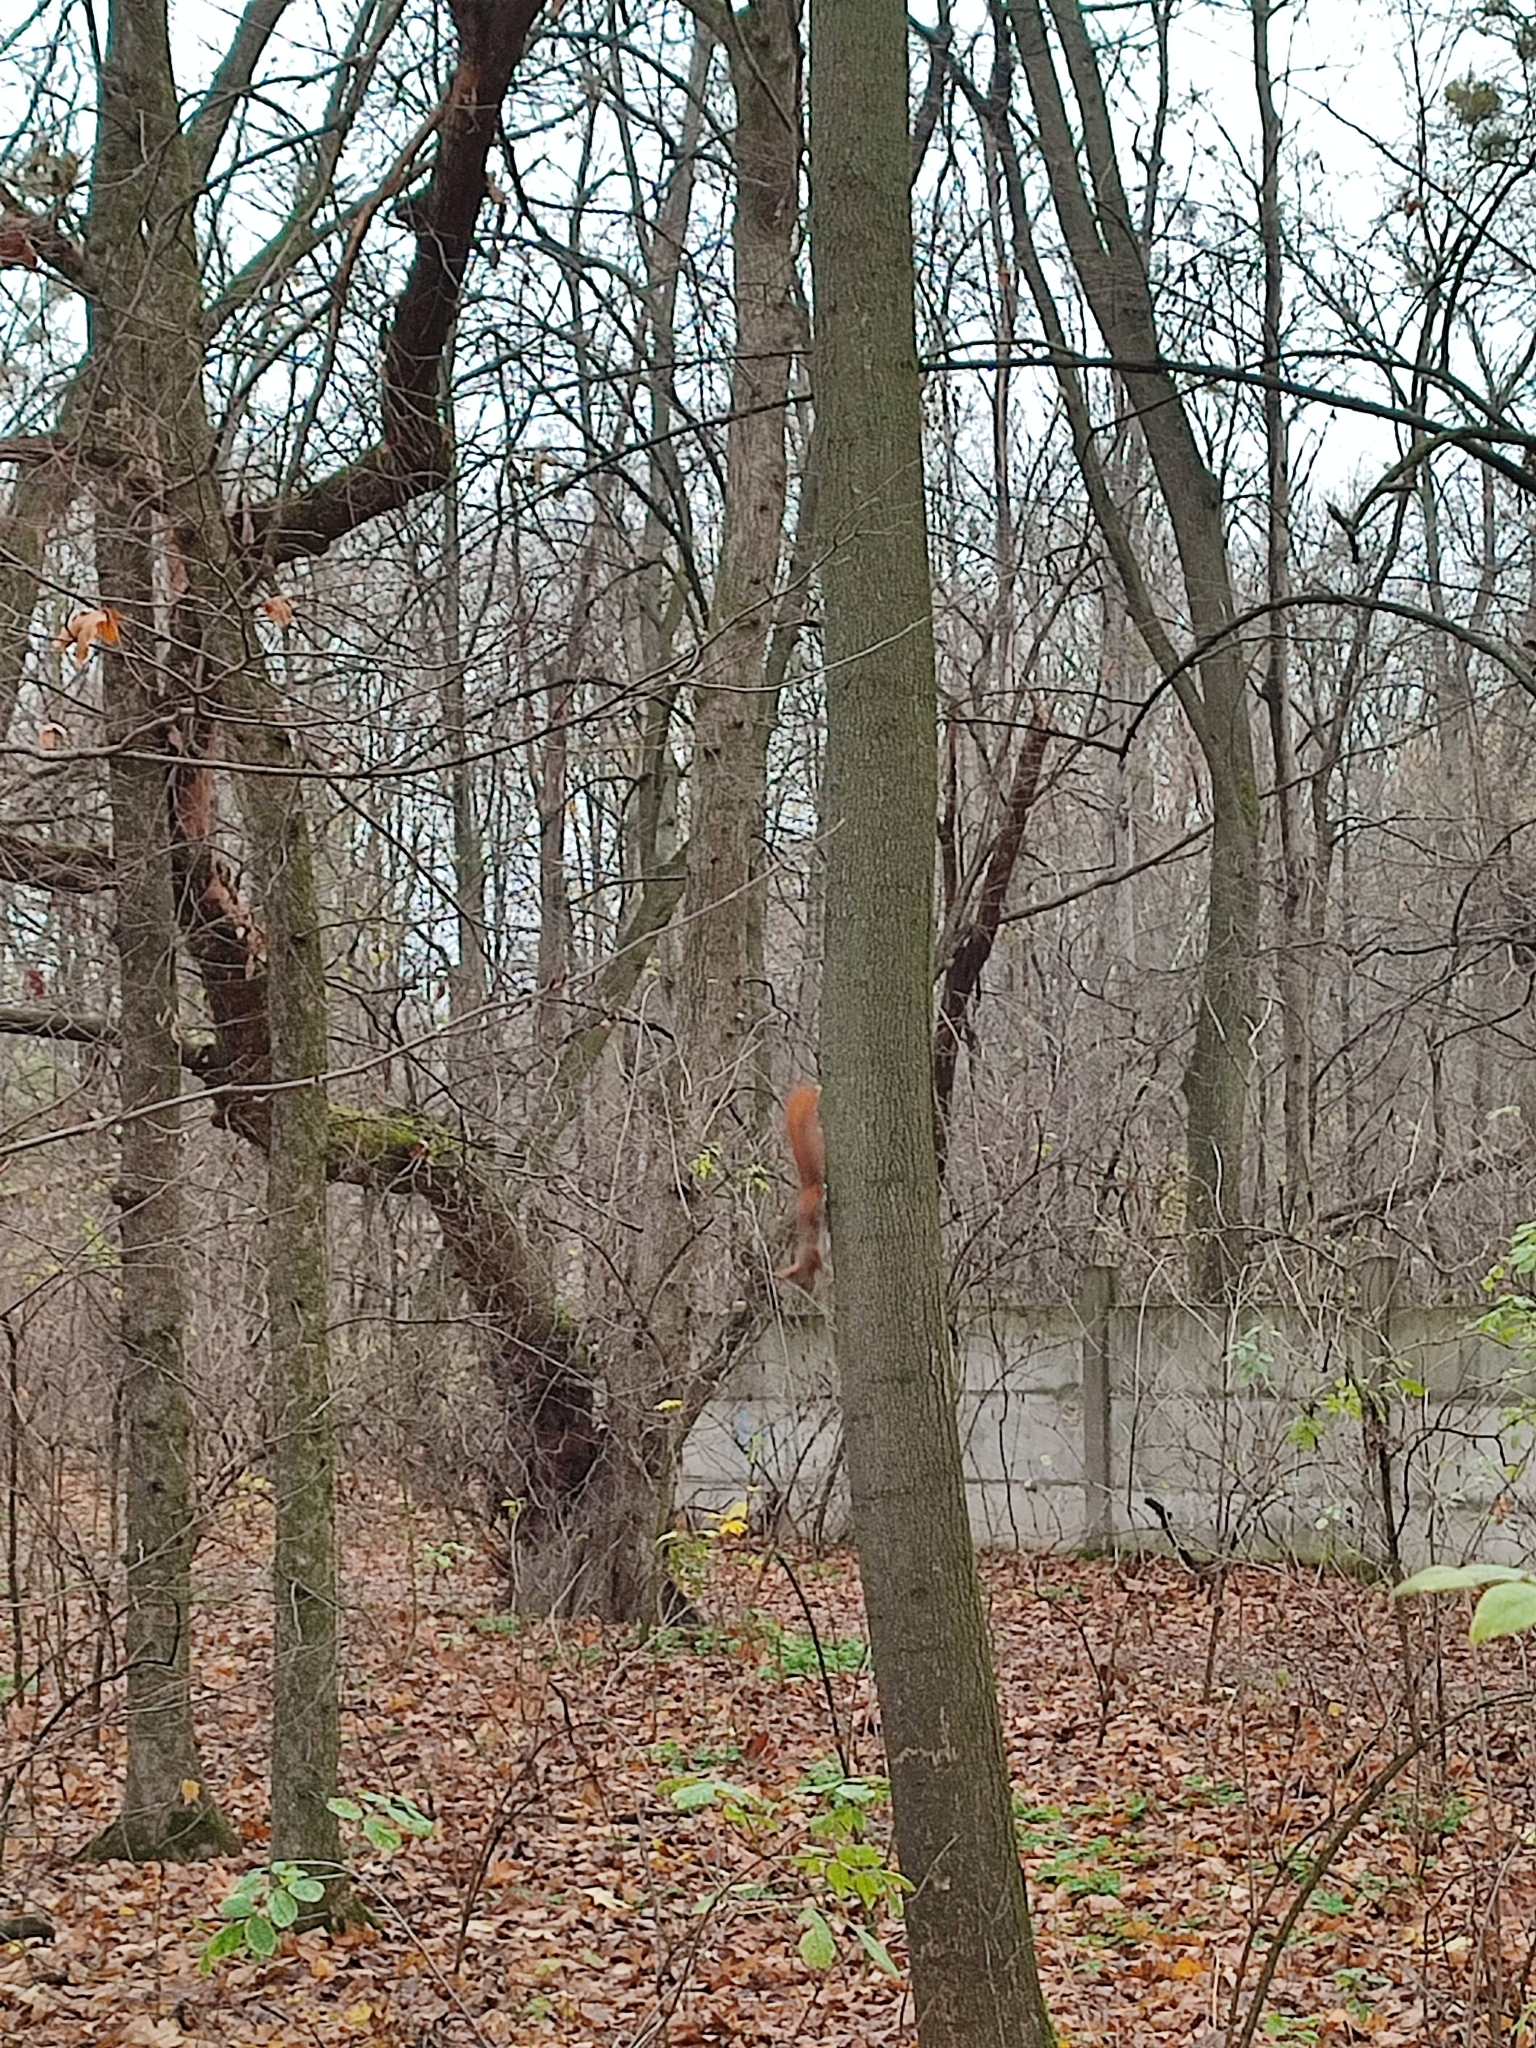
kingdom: Animalia
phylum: Chordata
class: Mammalia
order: Rodentia
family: Sciuridae
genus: Sciurus
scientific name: Sciurus vulgaris
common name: Eurasian red squirrel
